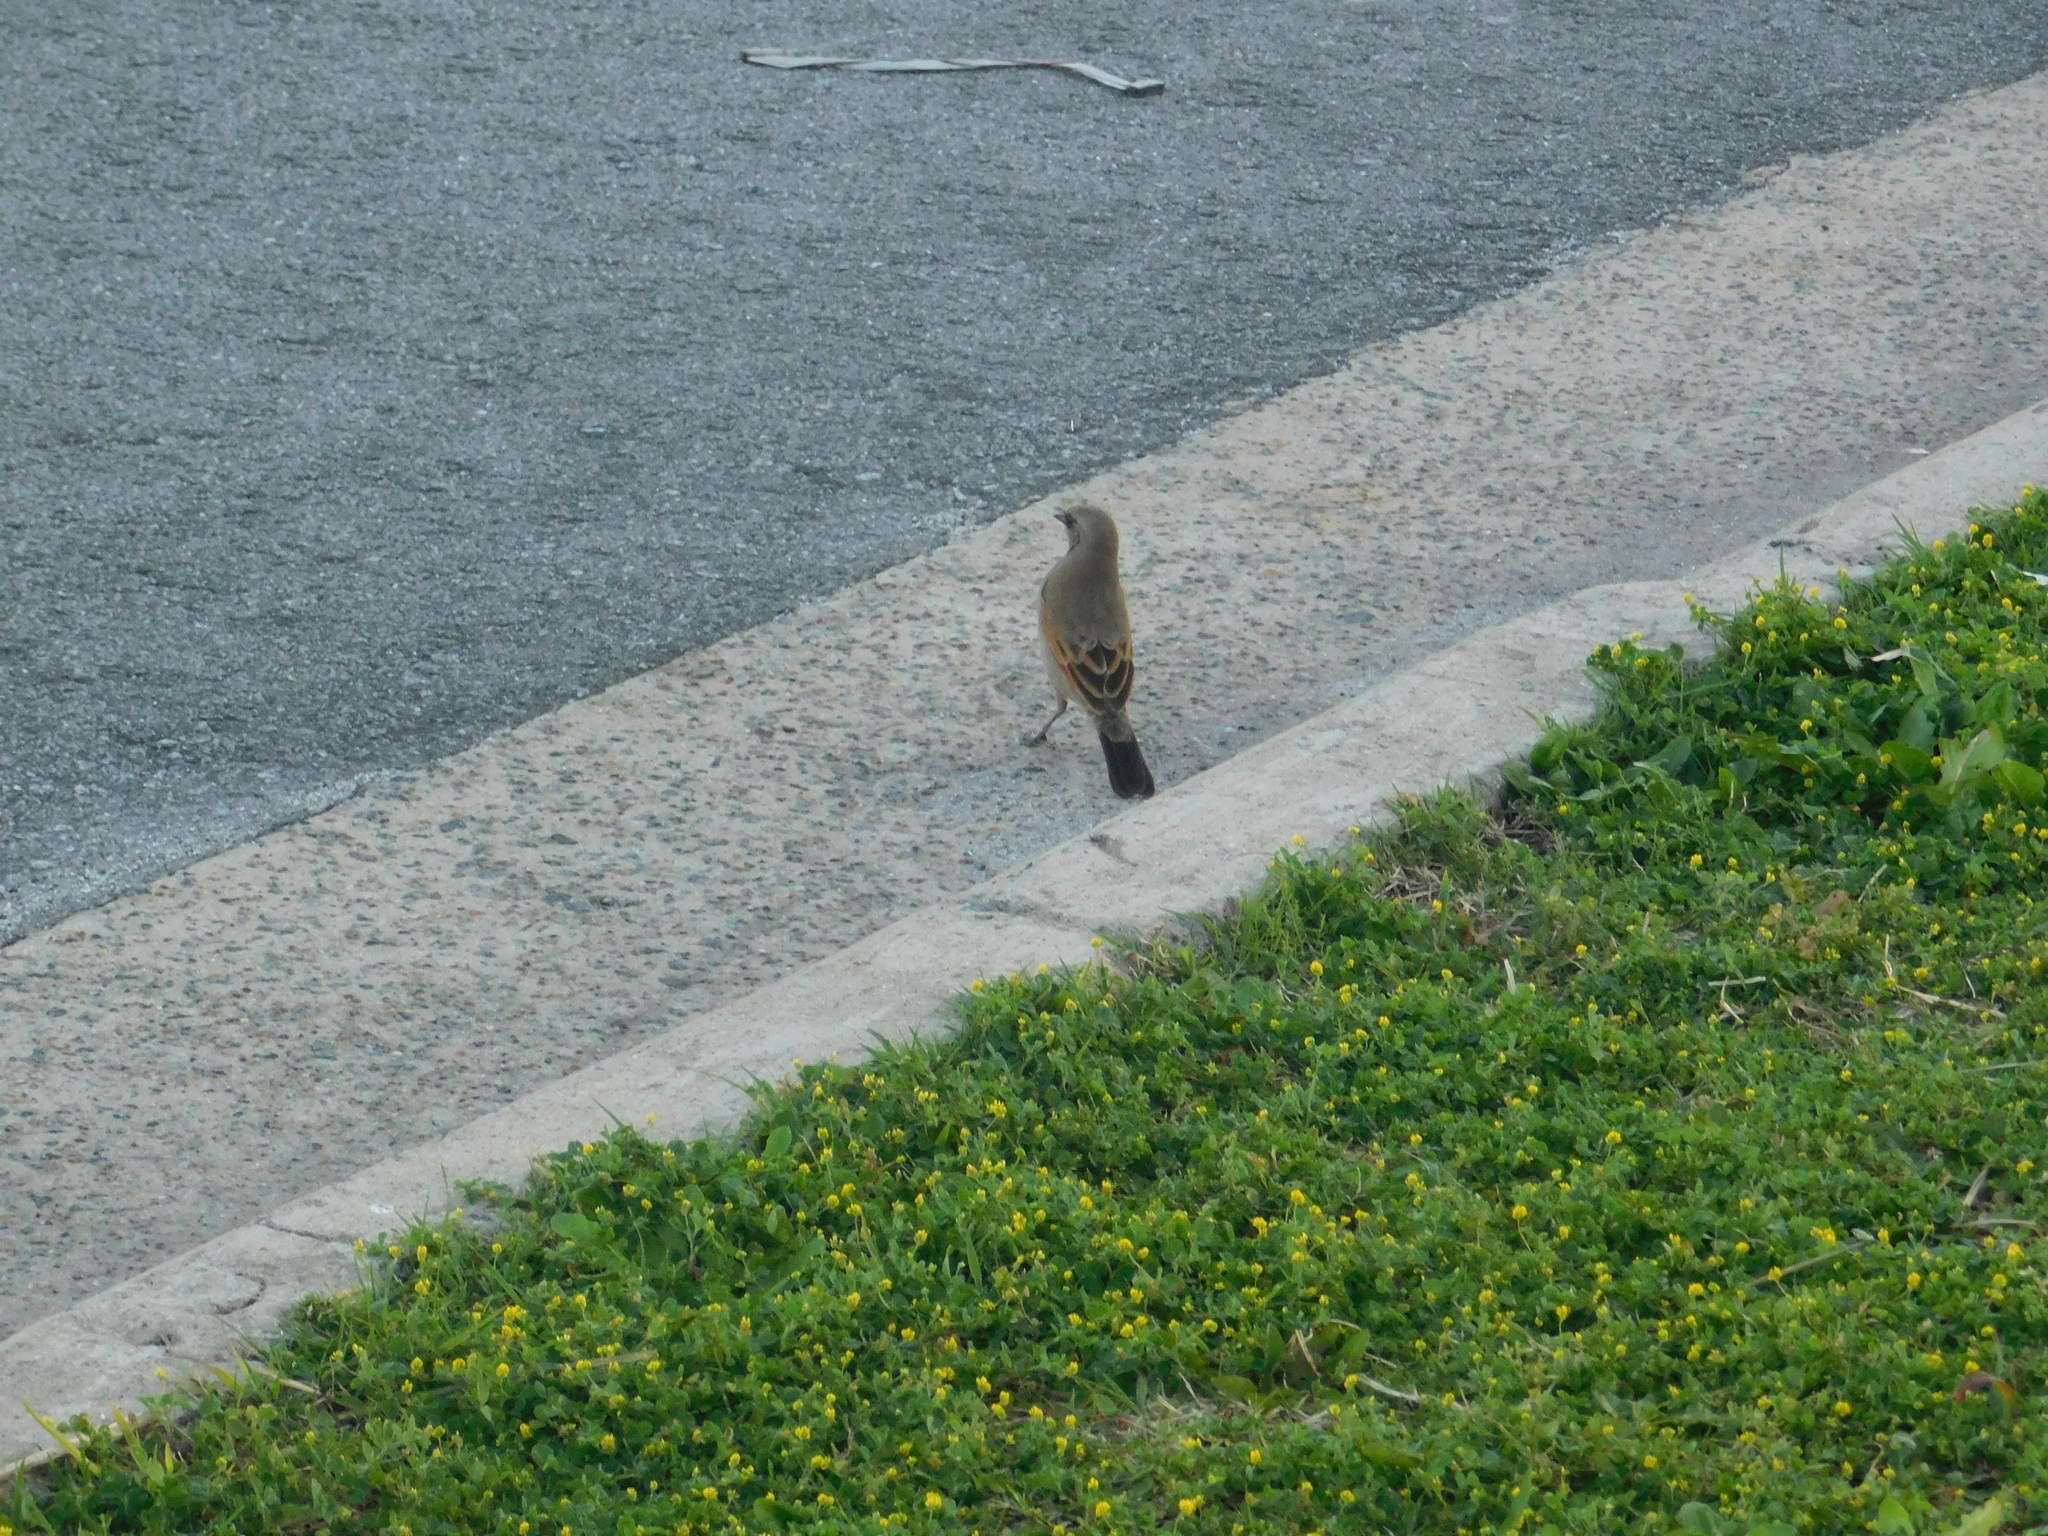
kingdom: Animalia
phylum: Chordata
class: Aves
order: Passeriformes
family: Icteridae
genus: Agelaioides
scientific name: Agelaioides badius
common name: Baywing
